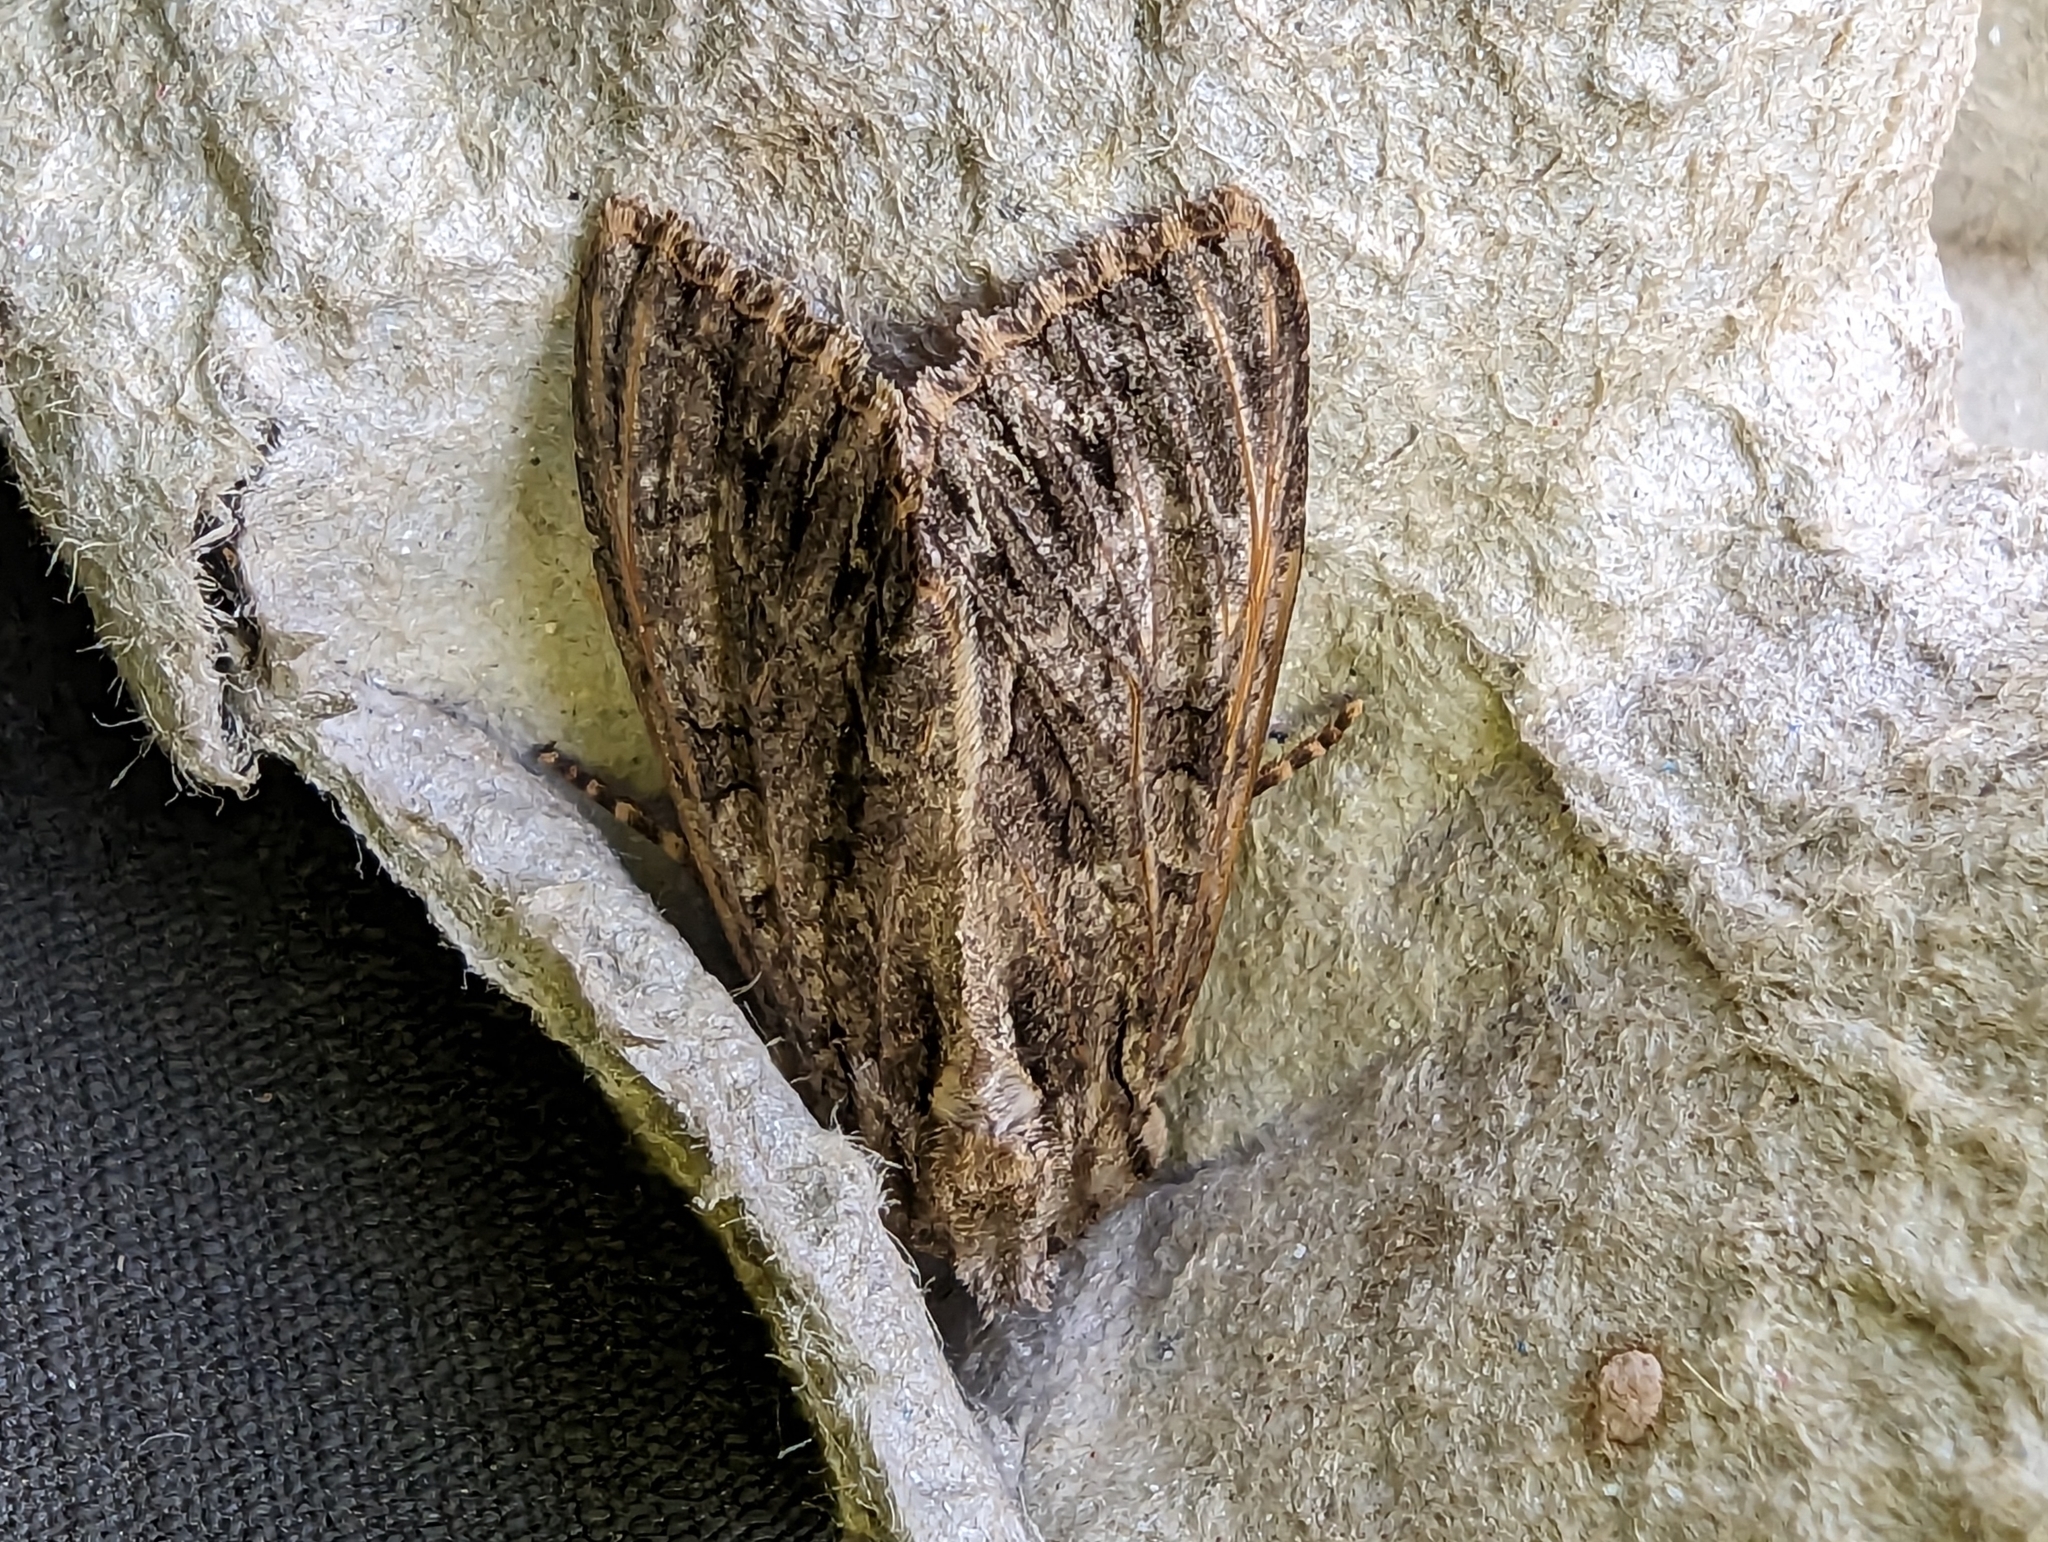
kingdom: Animalia
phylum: Arthropoda
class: Insecta
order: Lepidoptera
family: Noctuidae
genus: Apamea
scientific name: Apamea monoglypha
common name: Dark arches
